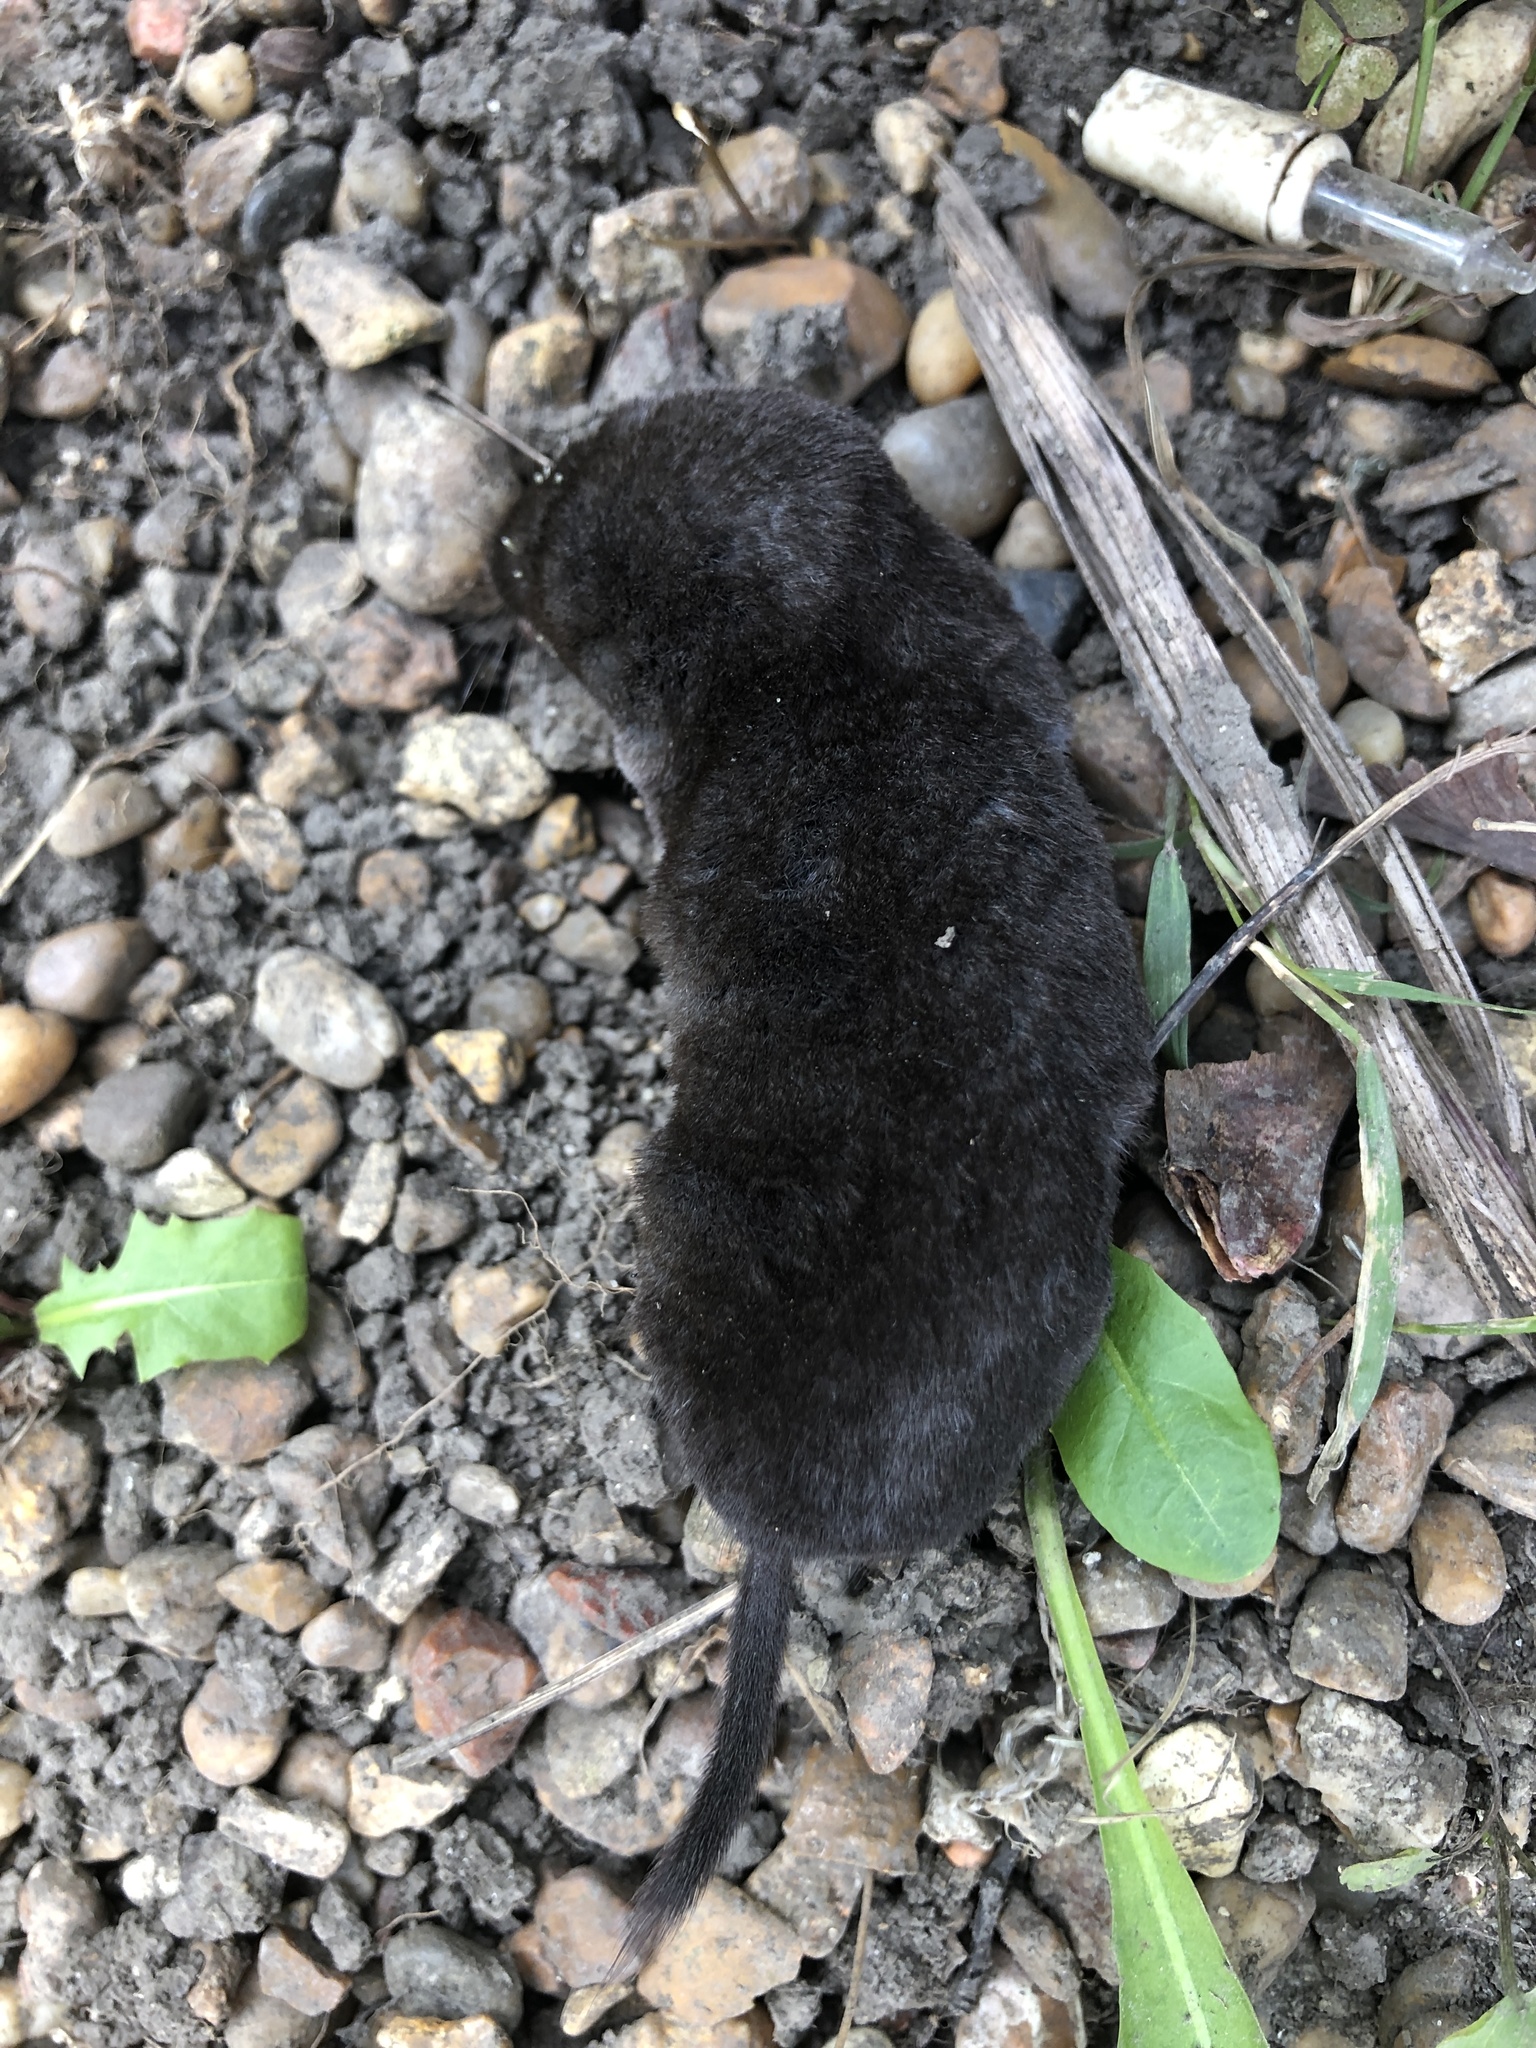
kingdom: Animalia
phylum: Chordata
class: Mammalia
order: Soricomorpha
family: Soricidae
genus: Blarina
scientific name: Blarina brevicauda
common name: Northern short-tailed shrew
